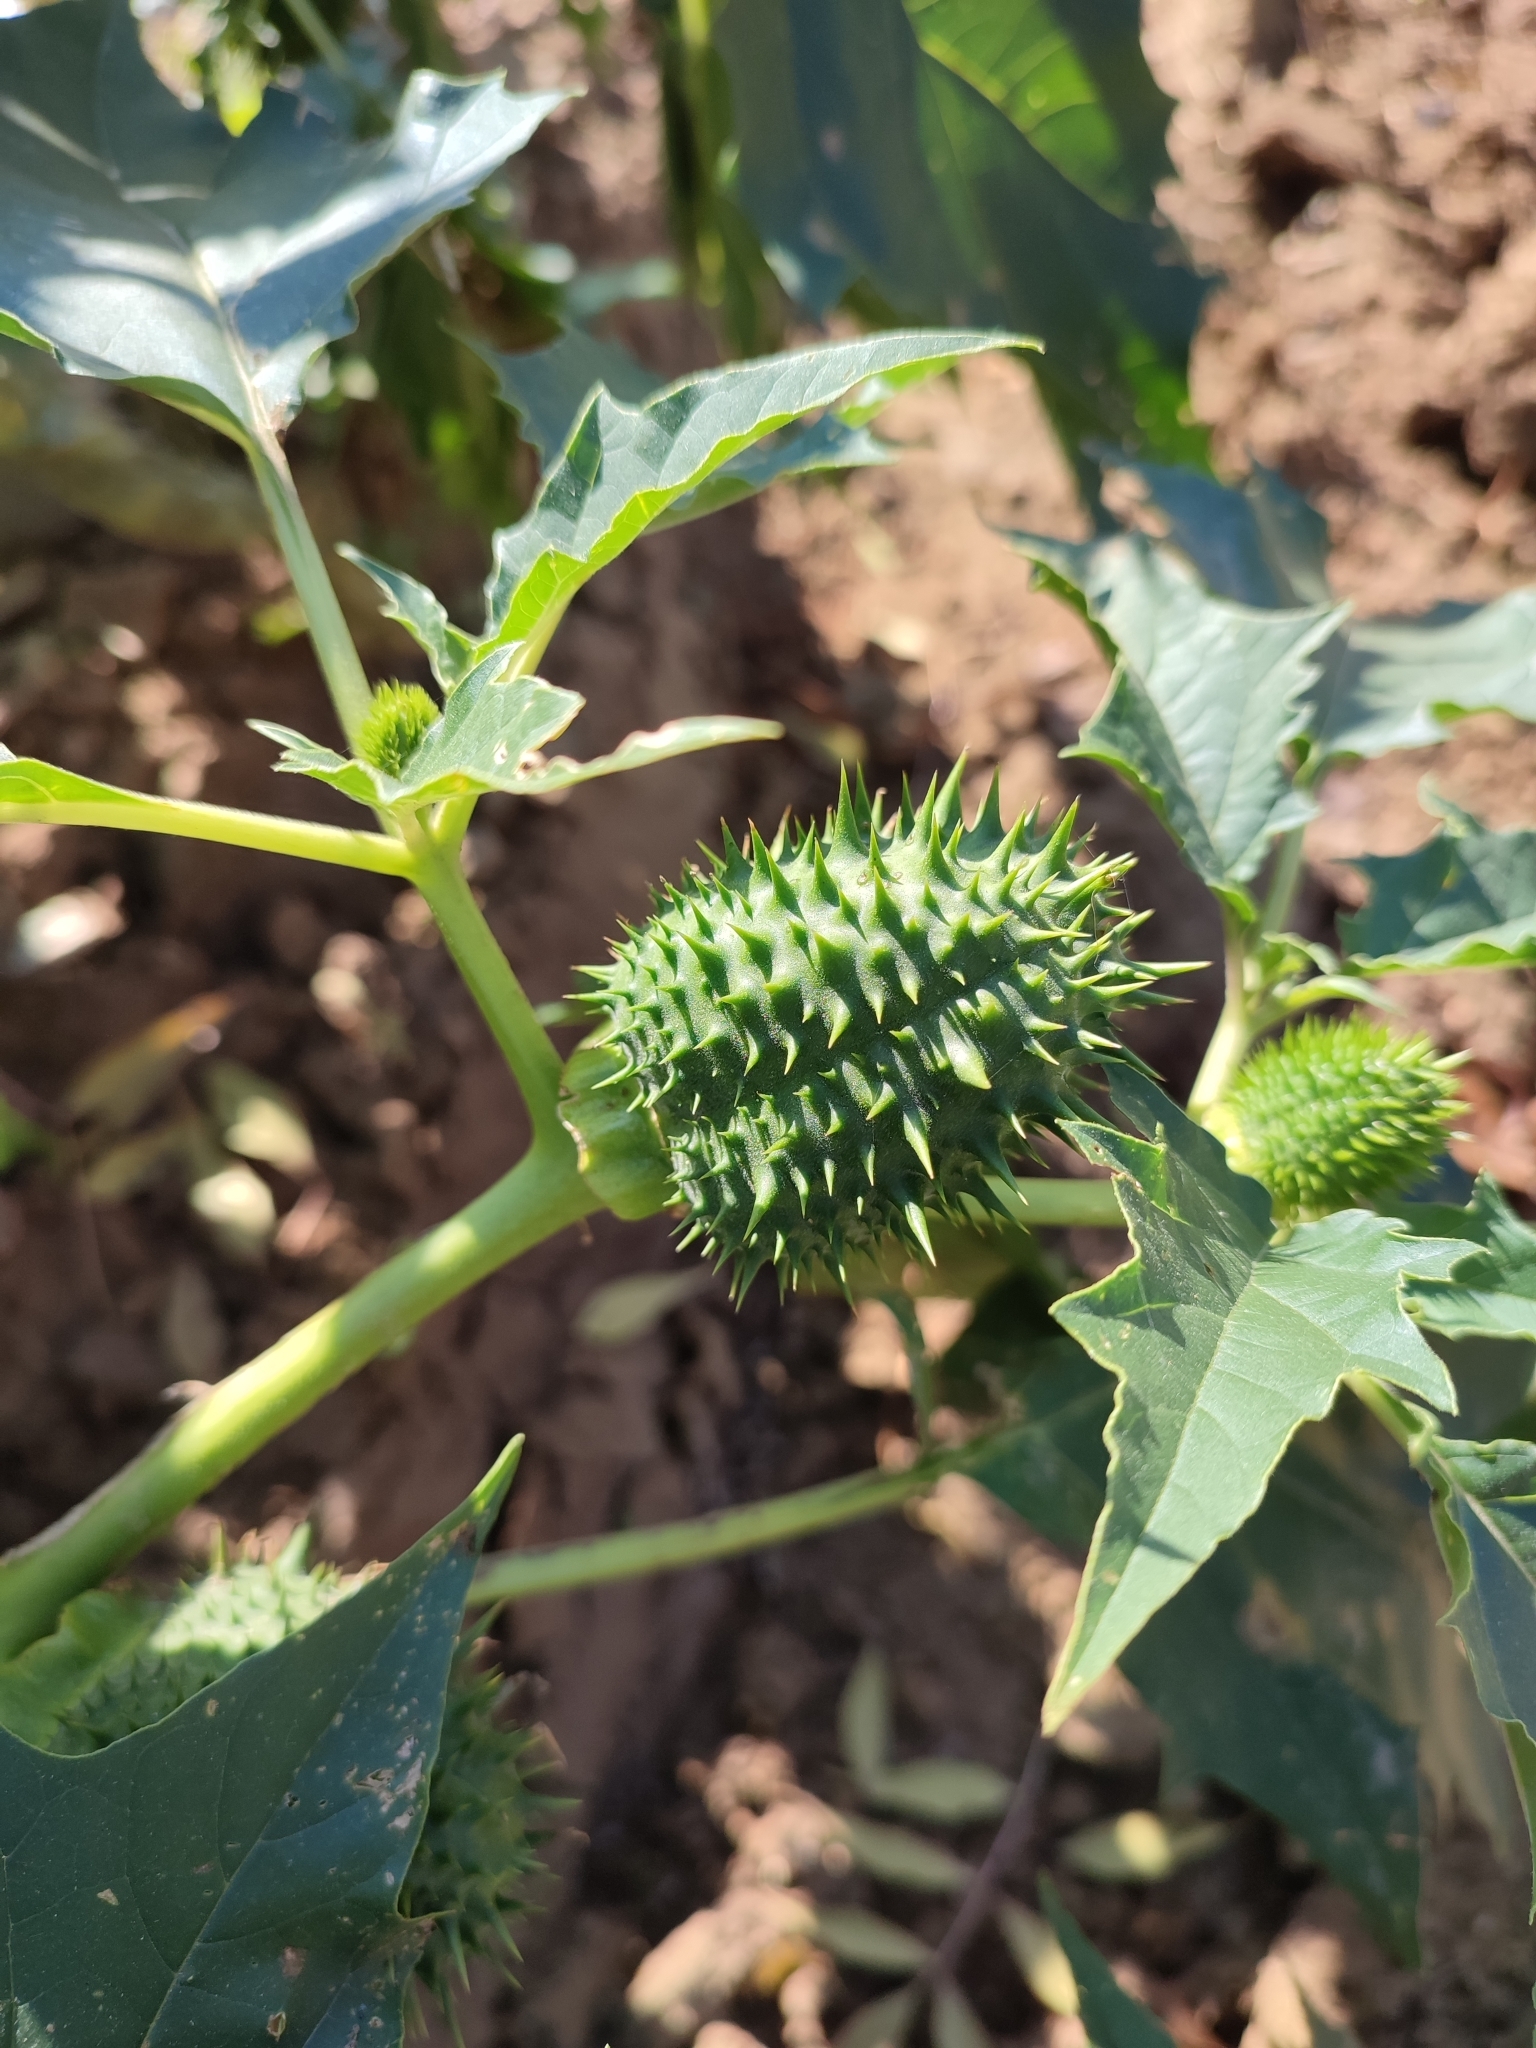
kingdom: Plantae
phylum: Tracheophyta
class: Magnoliopsida
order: Solanales
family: Solanaceae
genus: Datura
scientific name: Datura stramonium
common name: Thorn-apple
